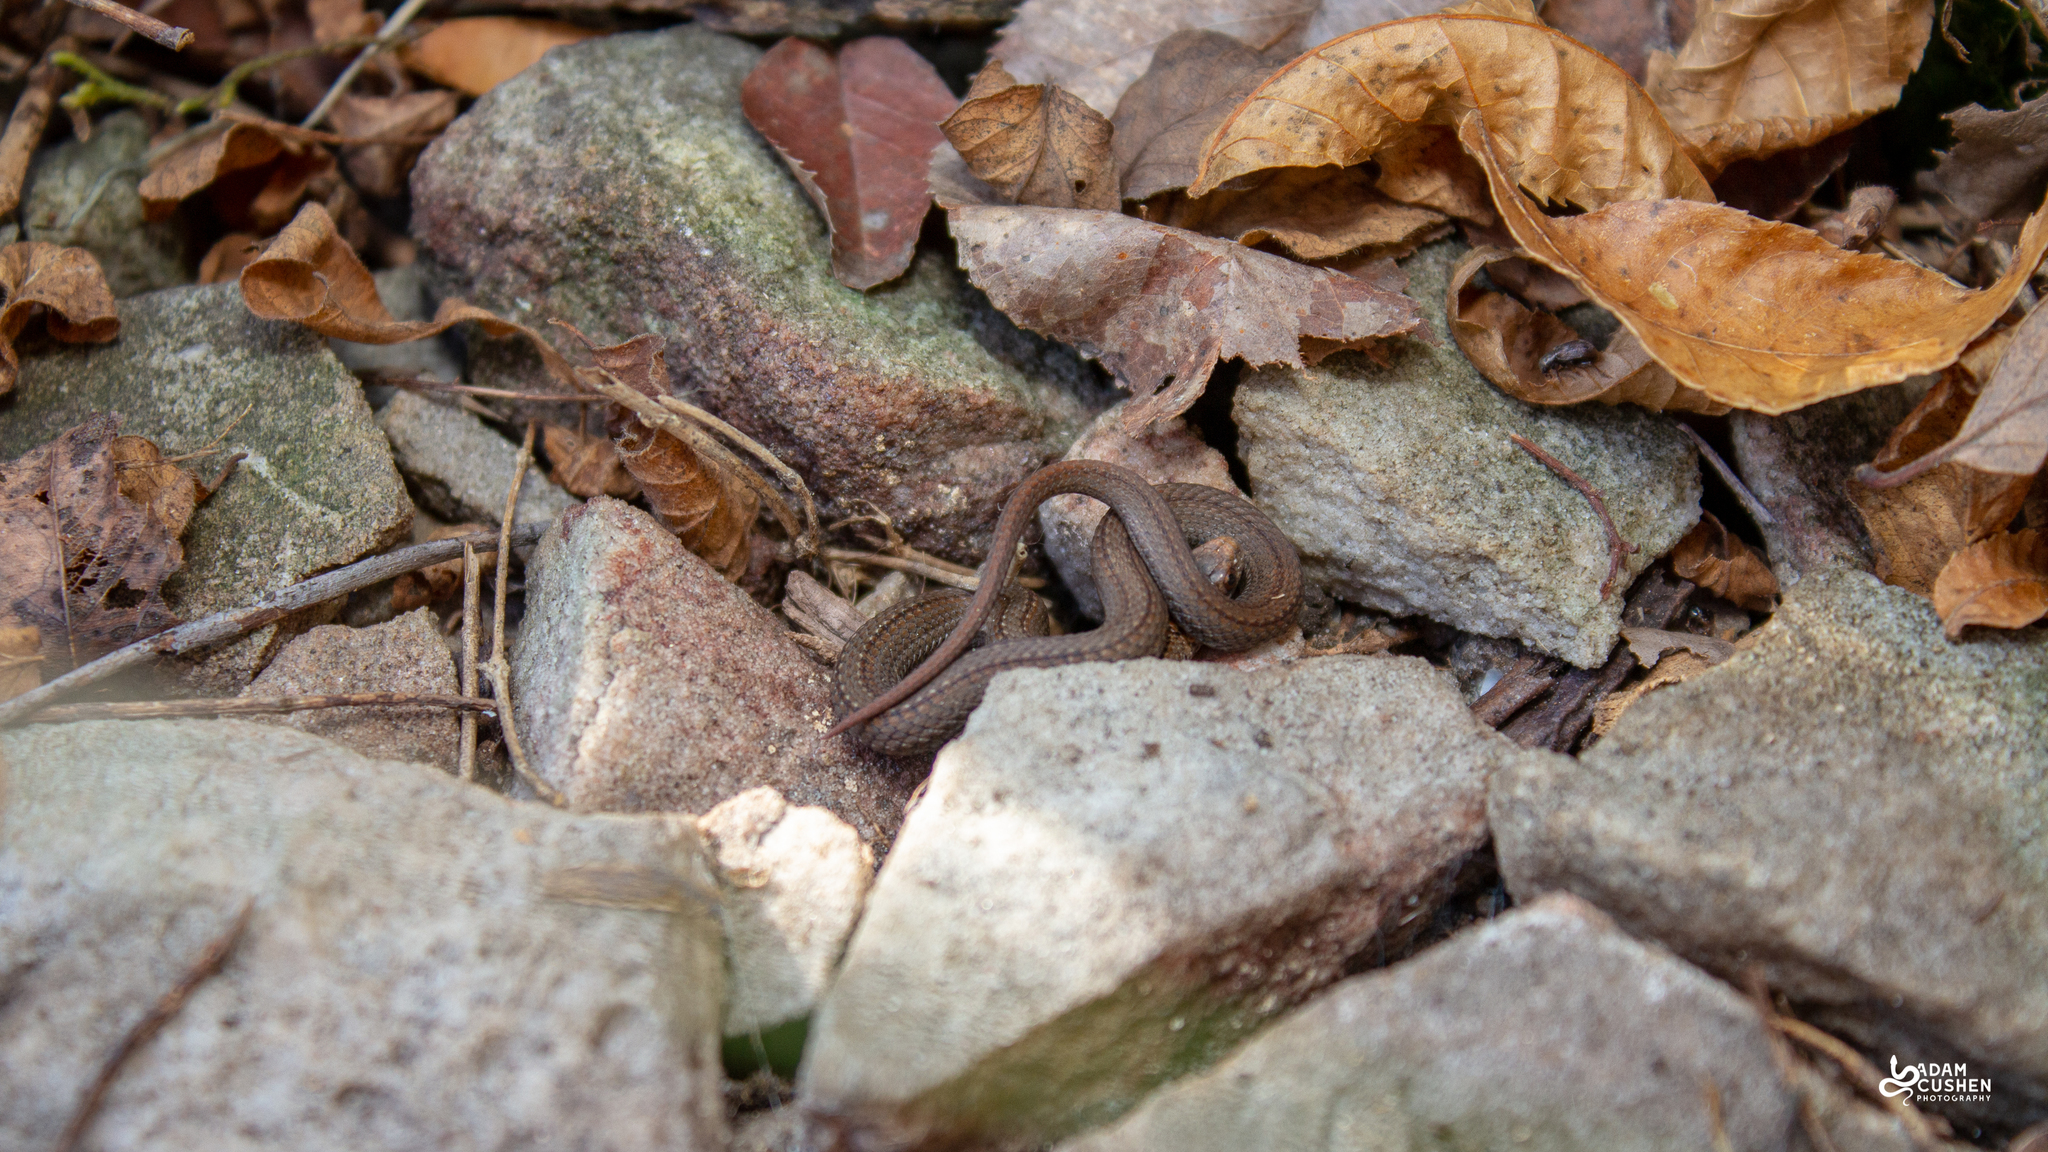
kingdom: Animalia
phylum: Chordata
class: Squamata
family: Colubridae
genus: Storeria
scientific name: Storeria occipitomaculata
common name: Redbelly snake
